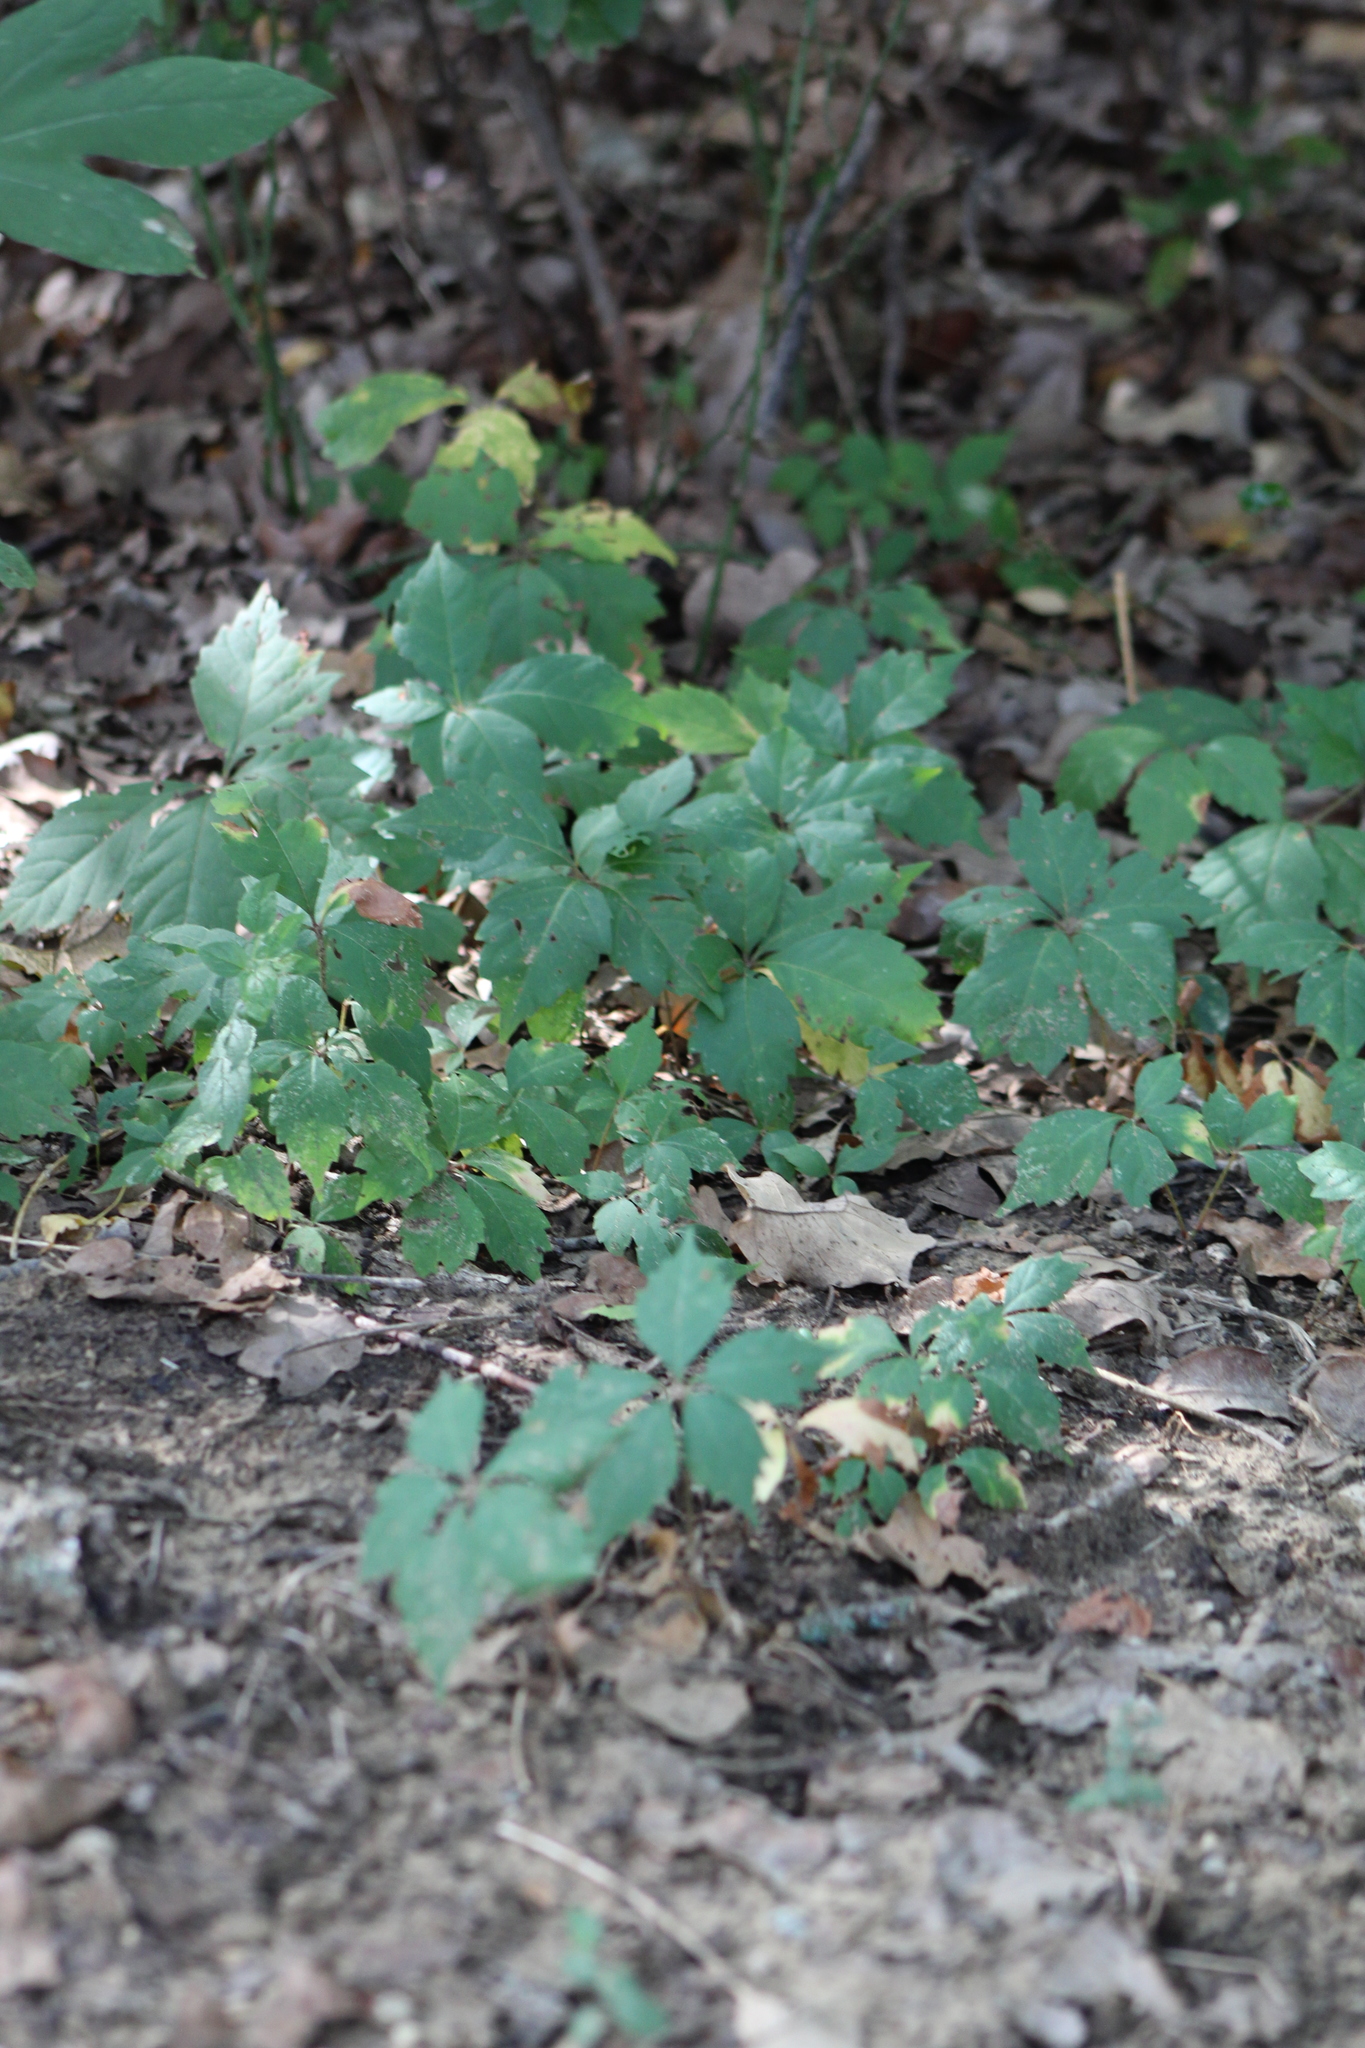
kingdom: Plantae
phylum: Tracheophyta
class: Magnoliopsida
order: Vitales
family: Vitaceae
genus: Parthenocissus
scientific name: Parthenocissus quinquefolia
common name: Virginia-creeper
